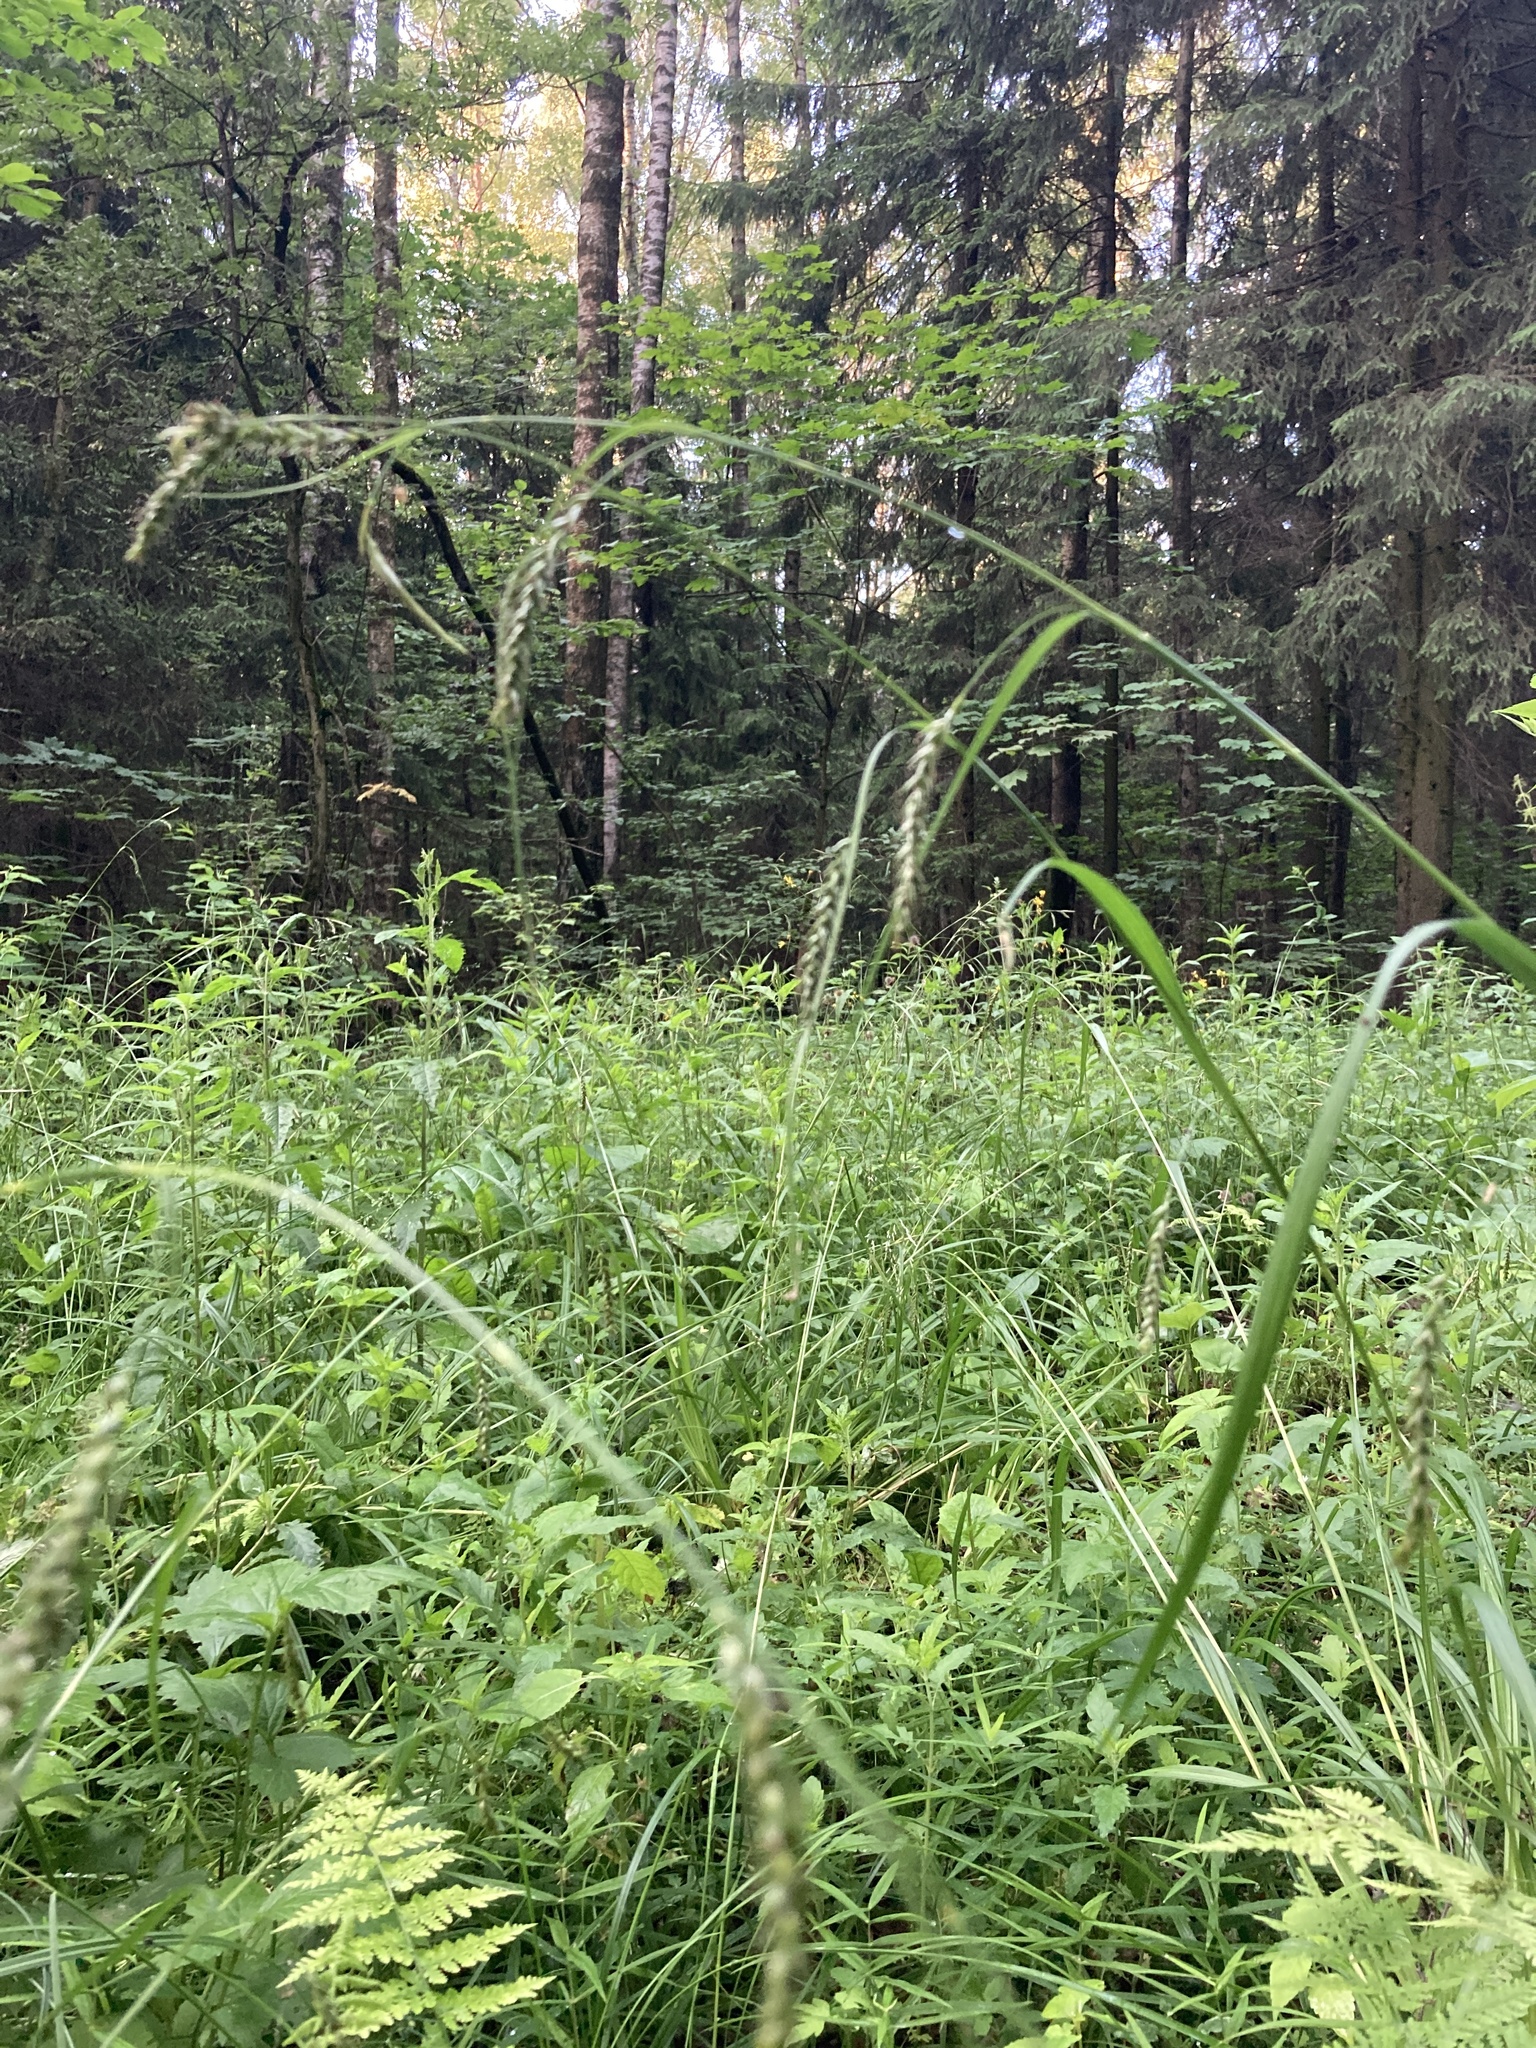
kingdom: Plantae
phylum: Tracheophyta
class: Liliopsida
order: Poales
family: Cyperaceae
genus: Carex
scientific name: Carex sylvatica
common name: Wood-sedge
